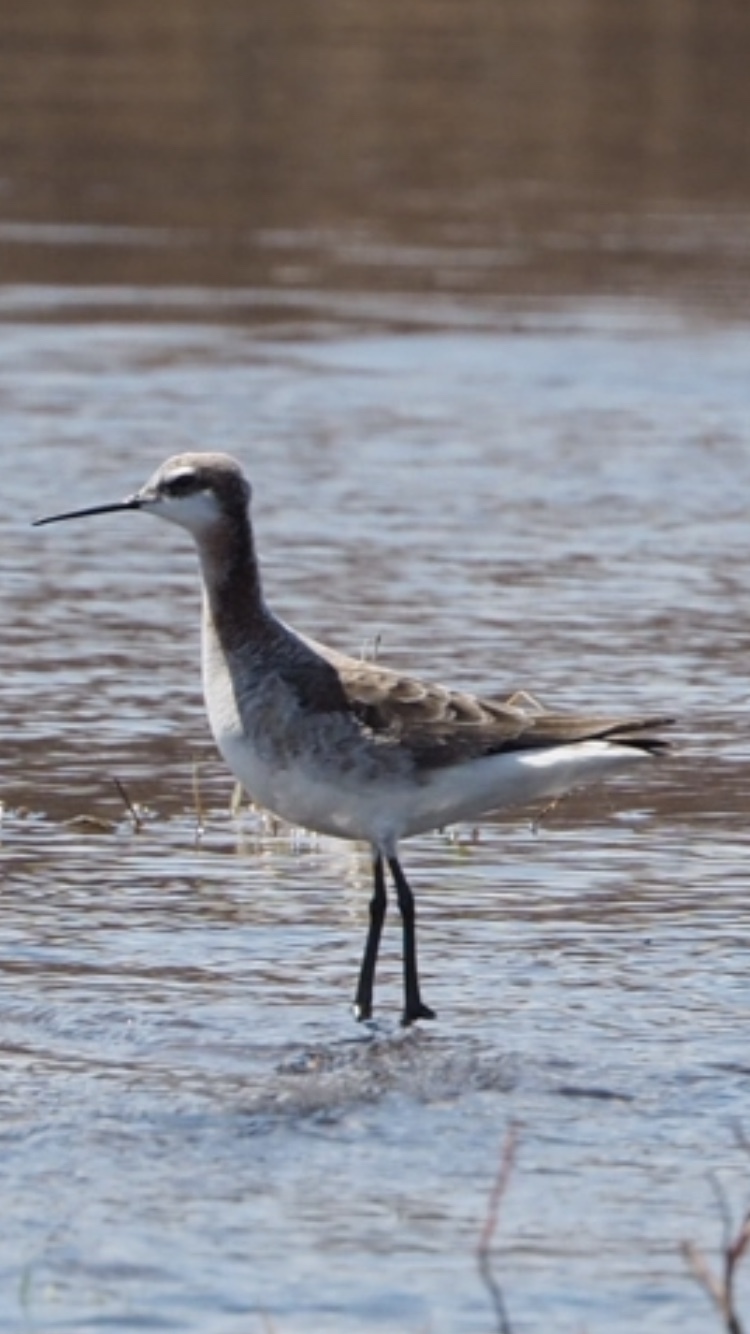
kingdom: Animalia
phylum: Chordata
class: Aves
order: Charadriiformes
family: Scolopacidae
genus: Phalaropus
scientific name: Phalaropus tricolor
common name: Wilson's phalarope
